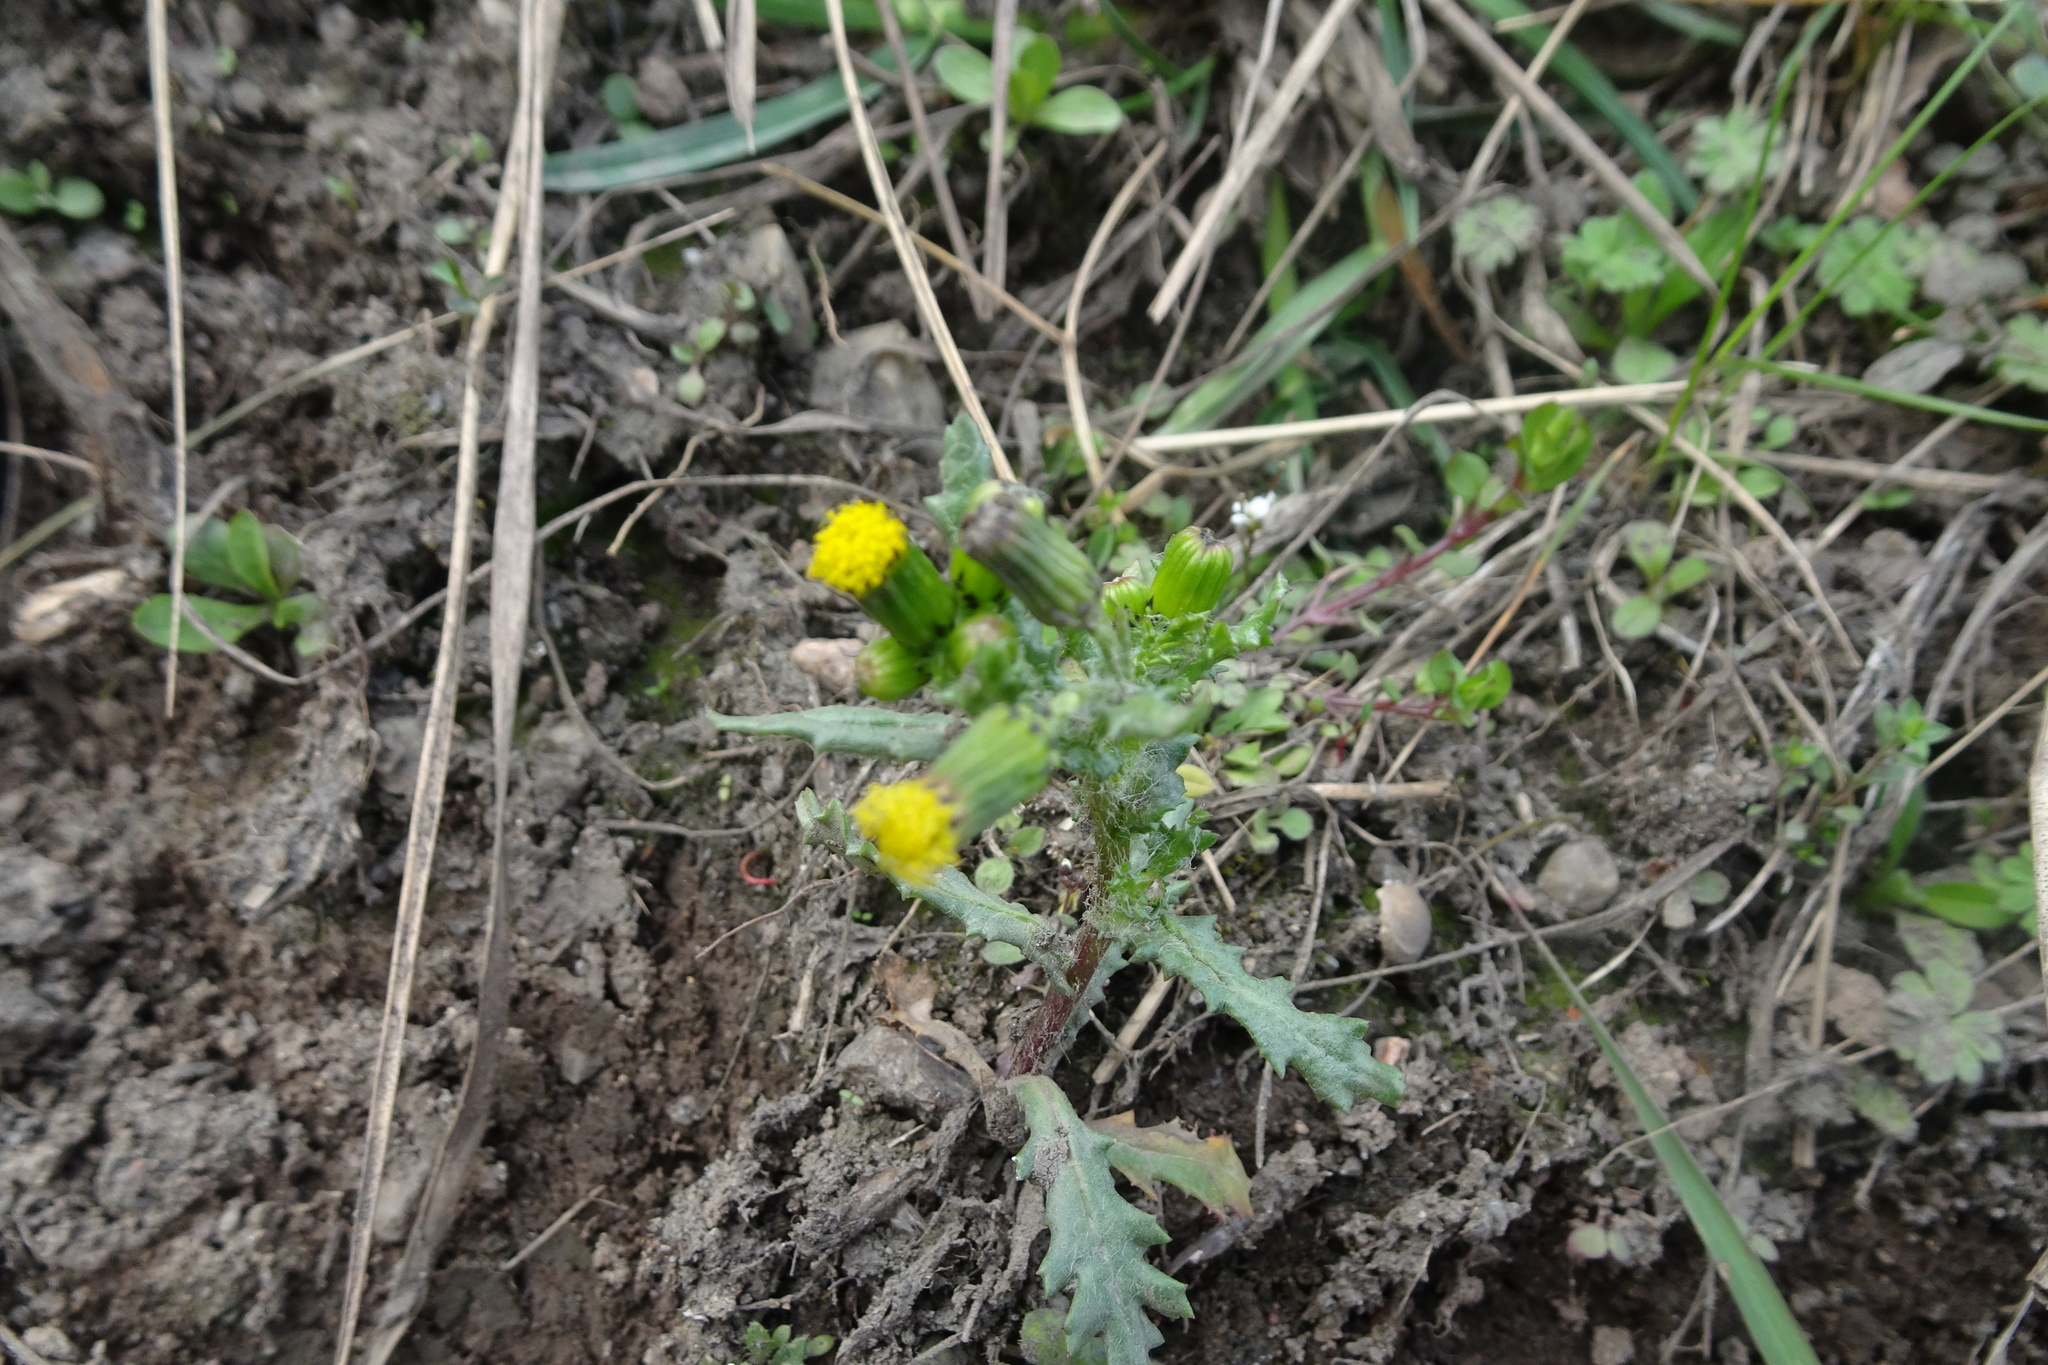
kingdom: Plantae
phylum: Tracheophyta
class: Magnoliopsida
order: Asterales
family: Asteraceae
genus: Senecio
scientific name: Senecio vulgaris
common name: Old-man-in-the-spring
